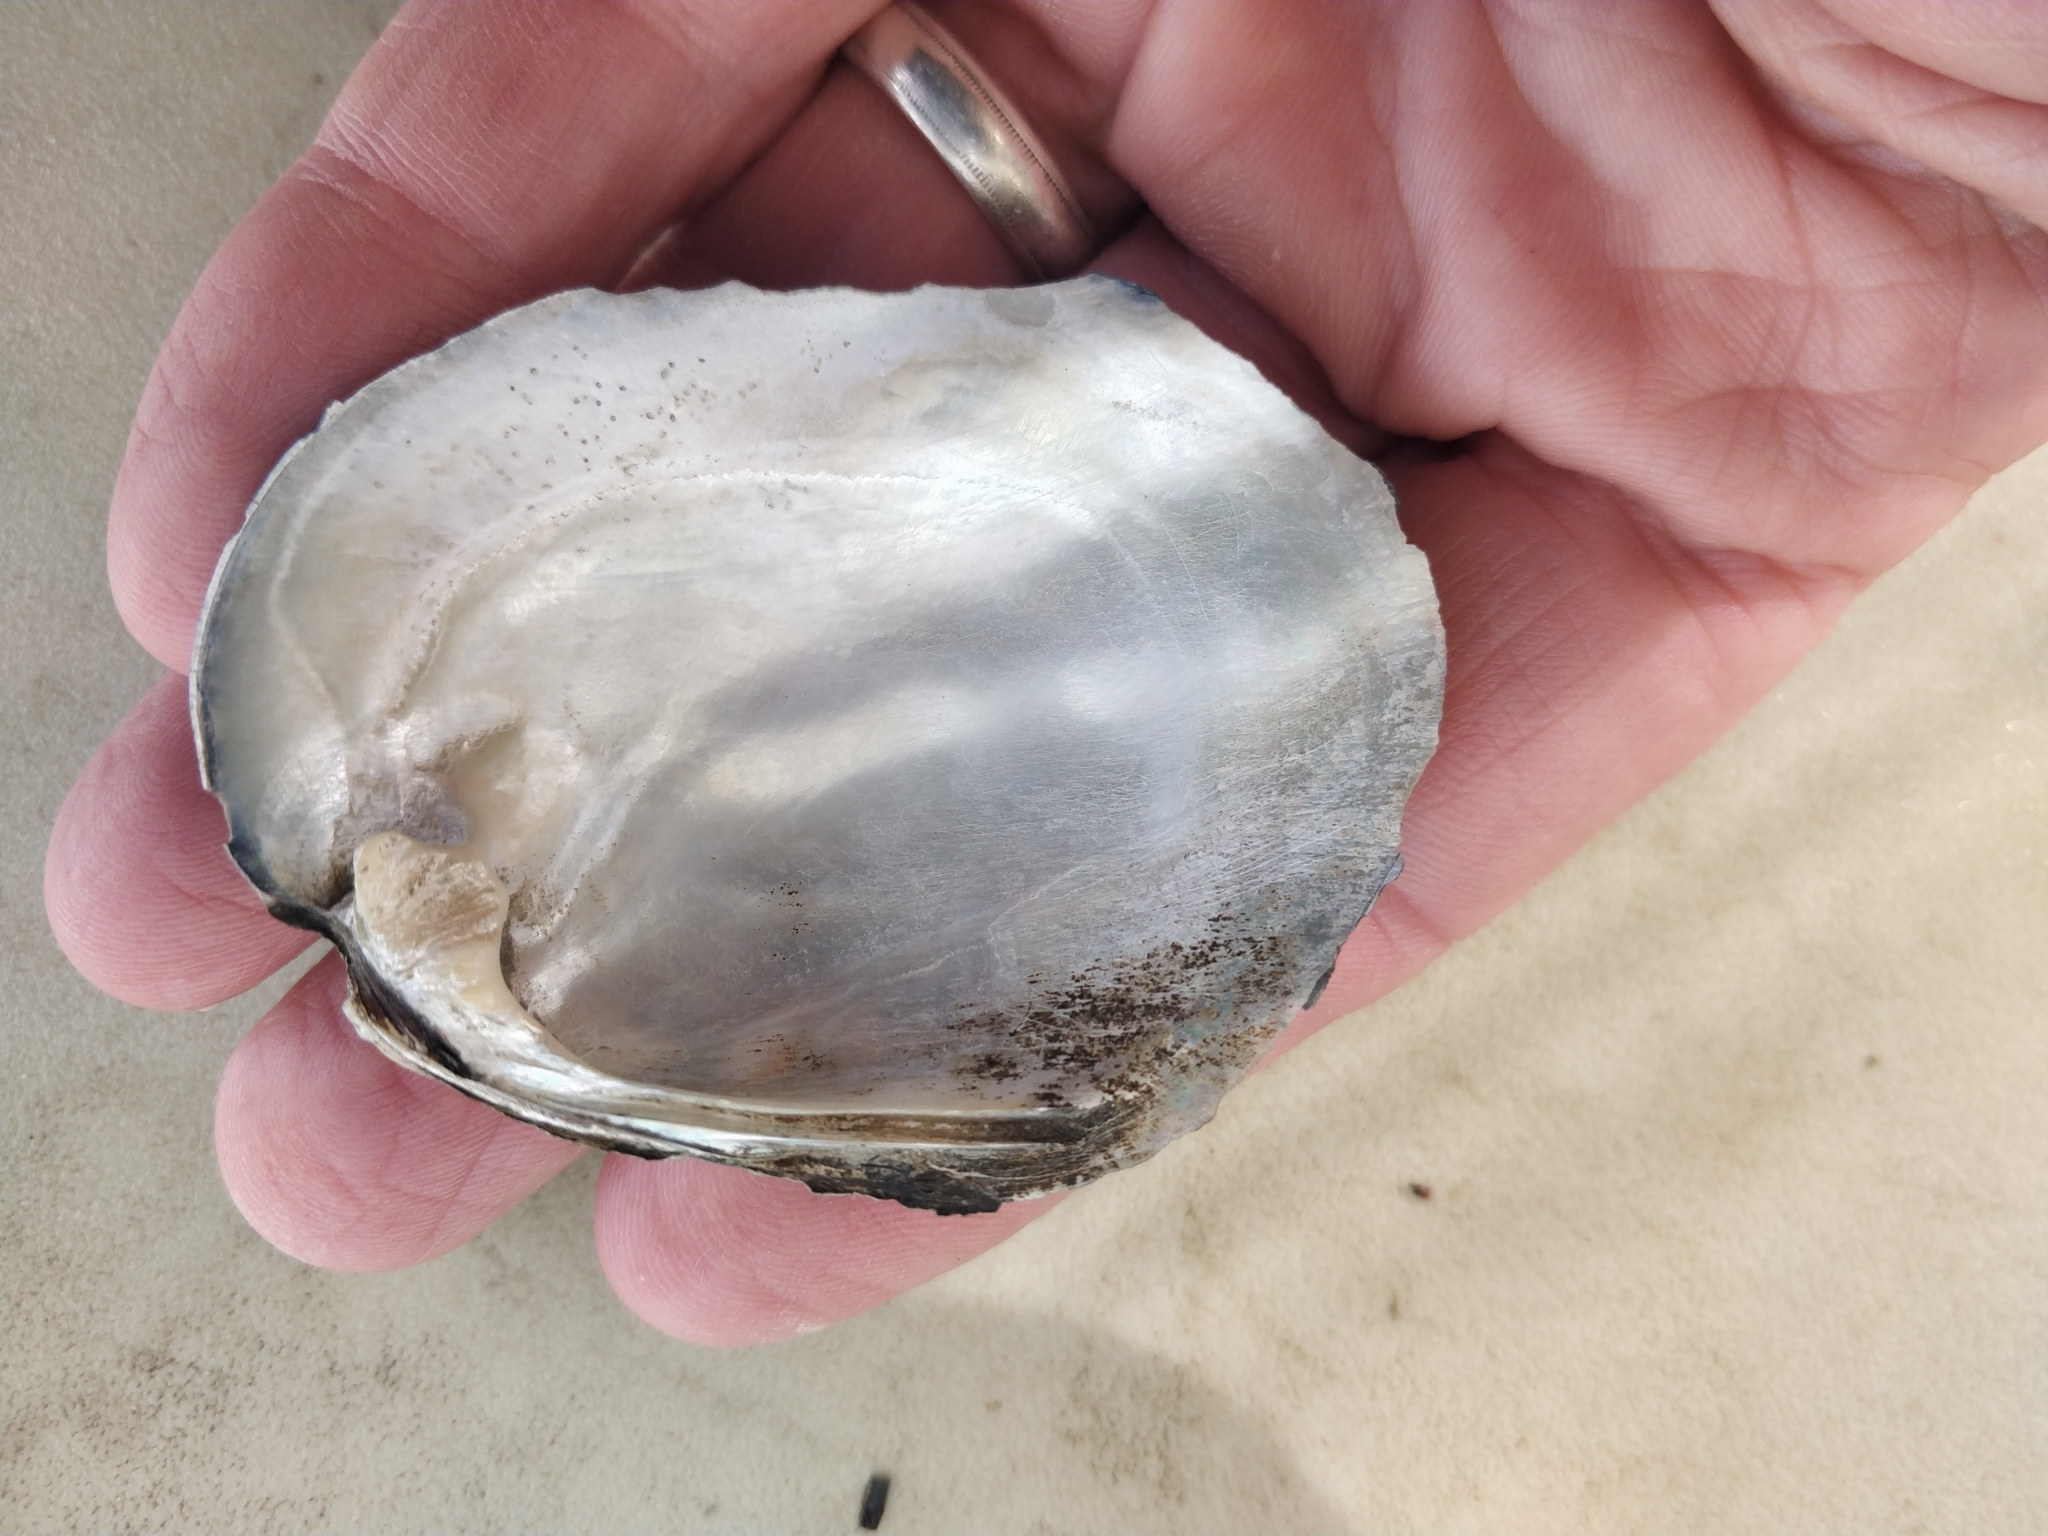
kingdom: Animalia
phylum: Mollusca
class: Bivalvia
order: Unionida
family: Unionidae
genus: Amblema
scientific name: Amblema plicata
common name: Threeridge
